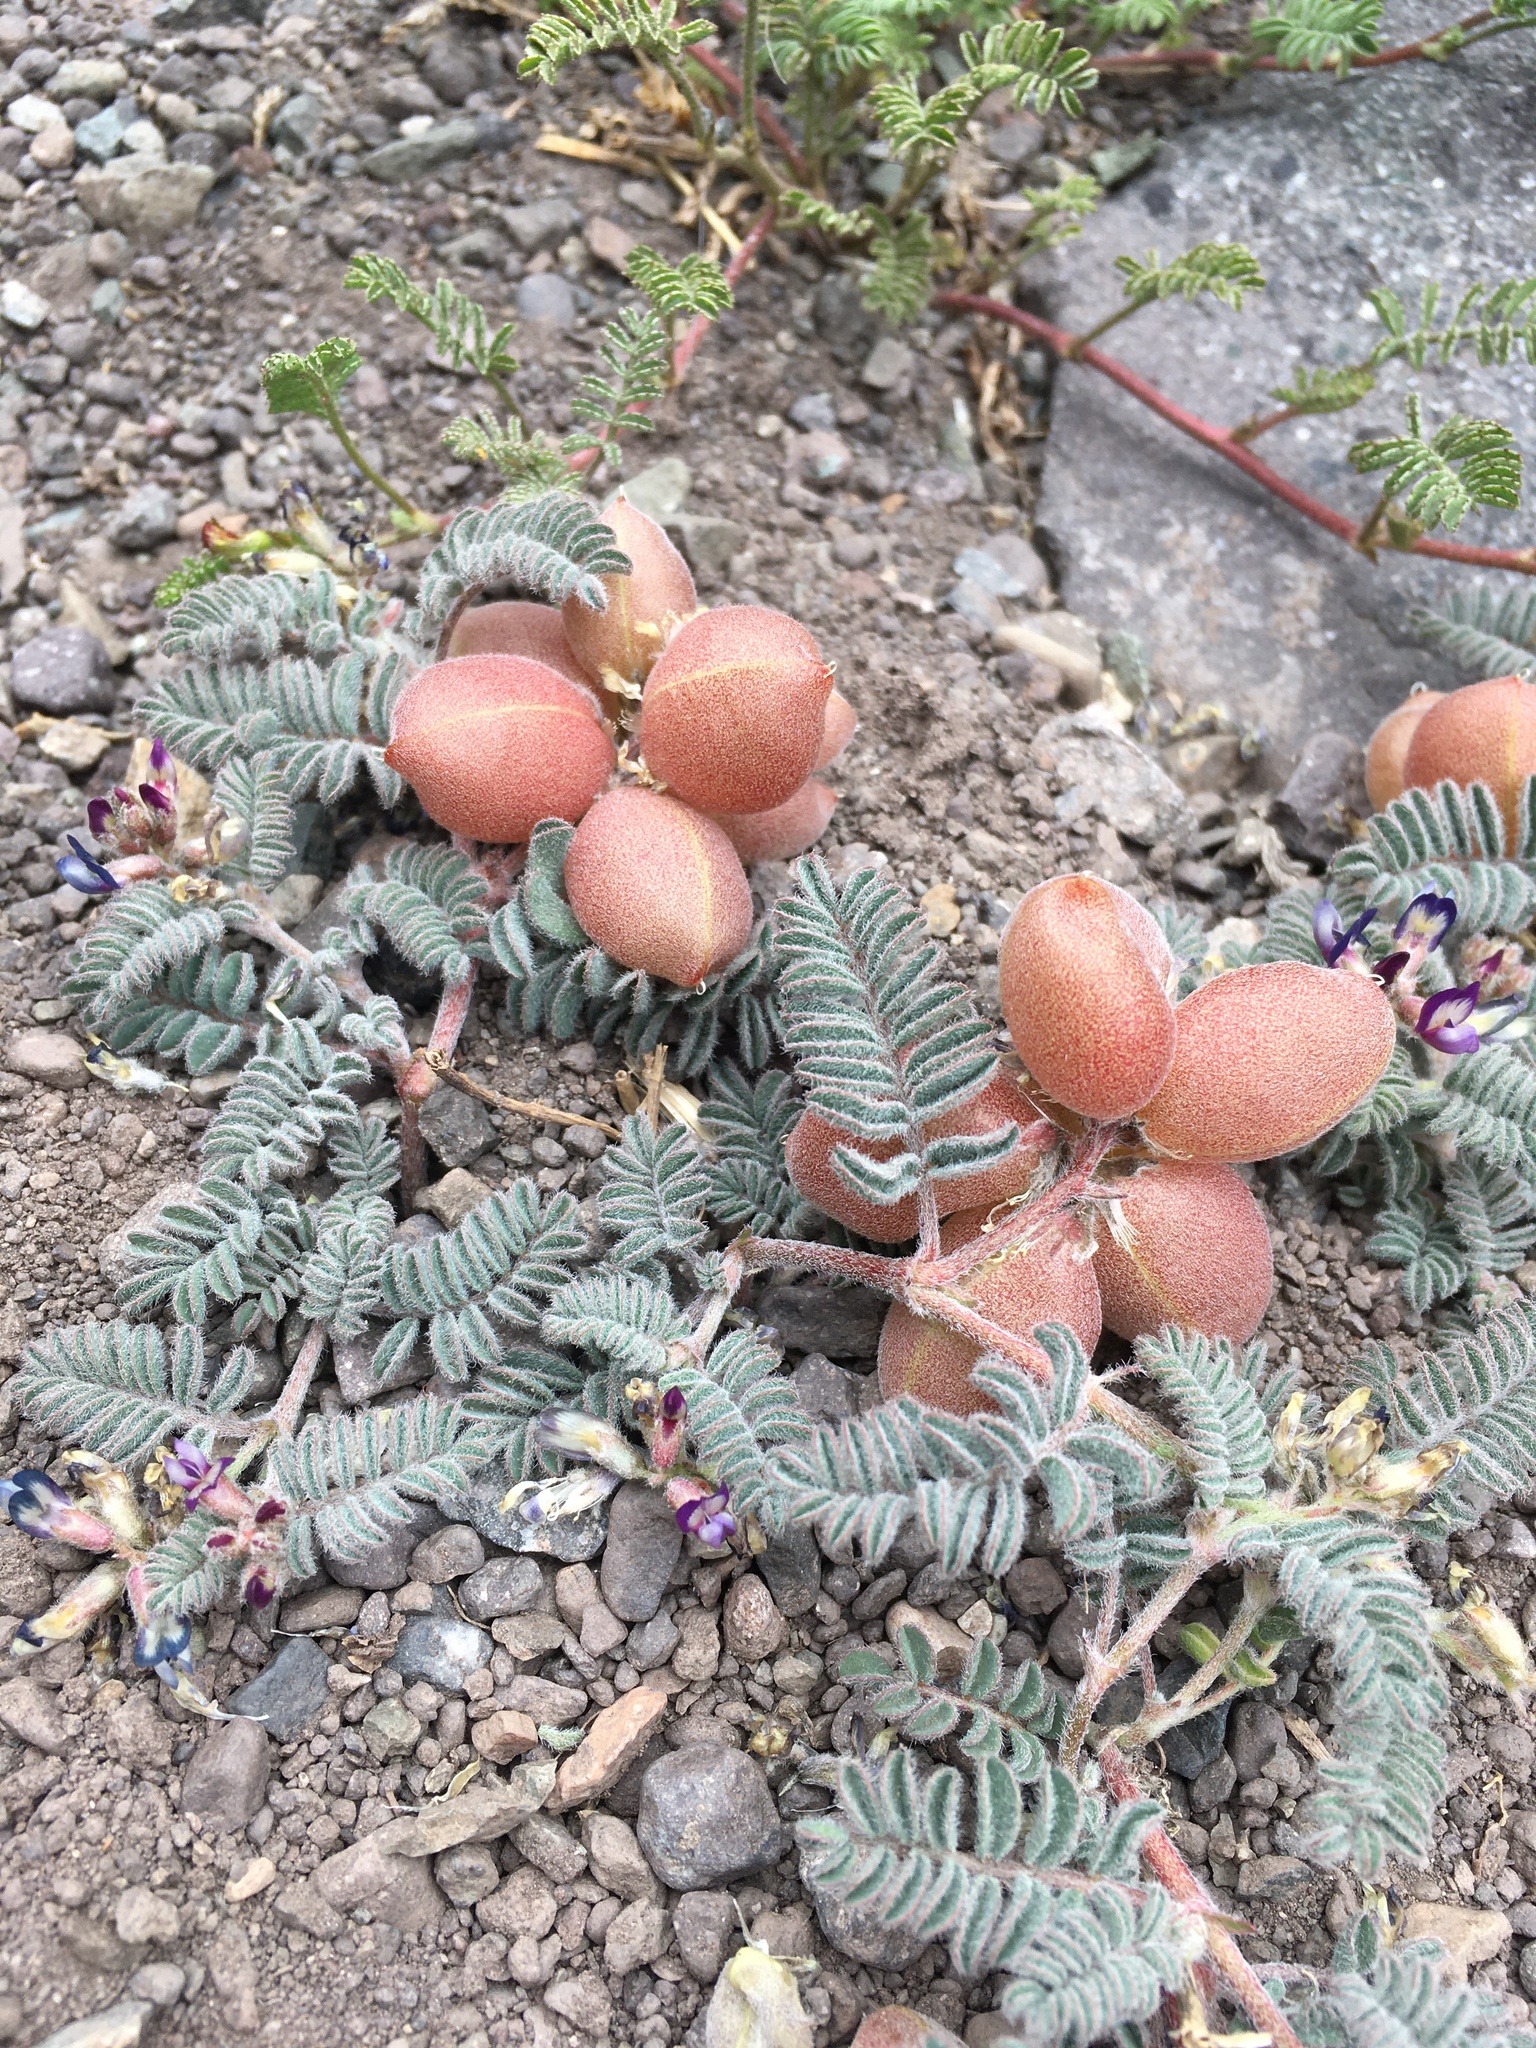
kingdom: Plantae
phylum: Tracheophyta
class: Magnoliopsida
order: Fabales
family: Fabaceae
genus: Astragalus
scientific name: Astragalus vesiculosus
